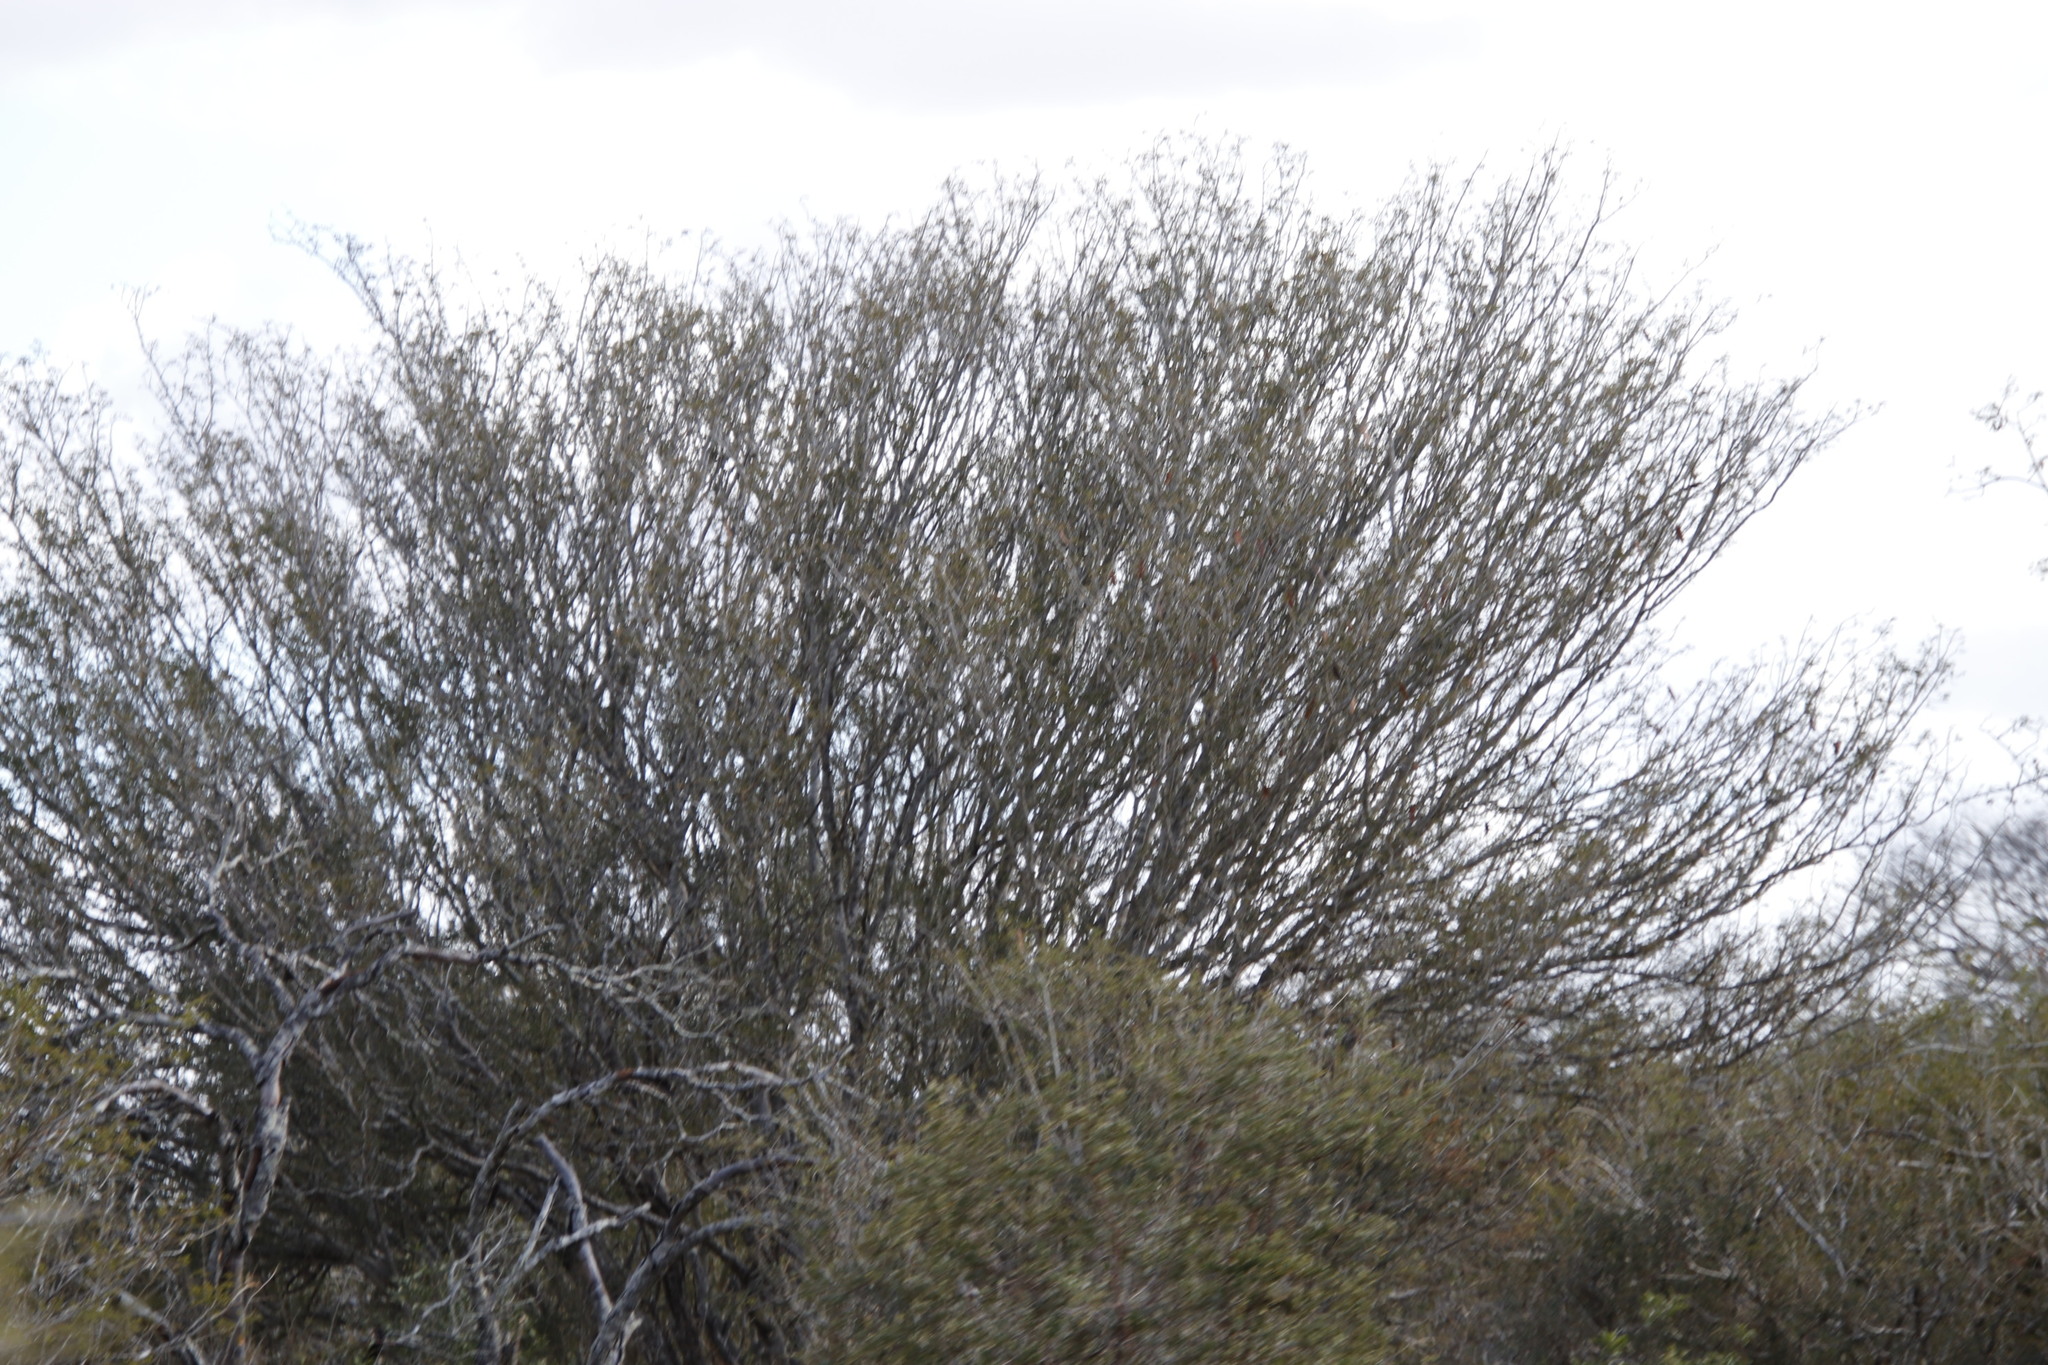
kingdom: Plantae
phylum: Tracheophyta
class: Magnoliopsida
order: Fabales
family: Fabaceae
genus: Albizia
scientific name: Albizia petersiana
